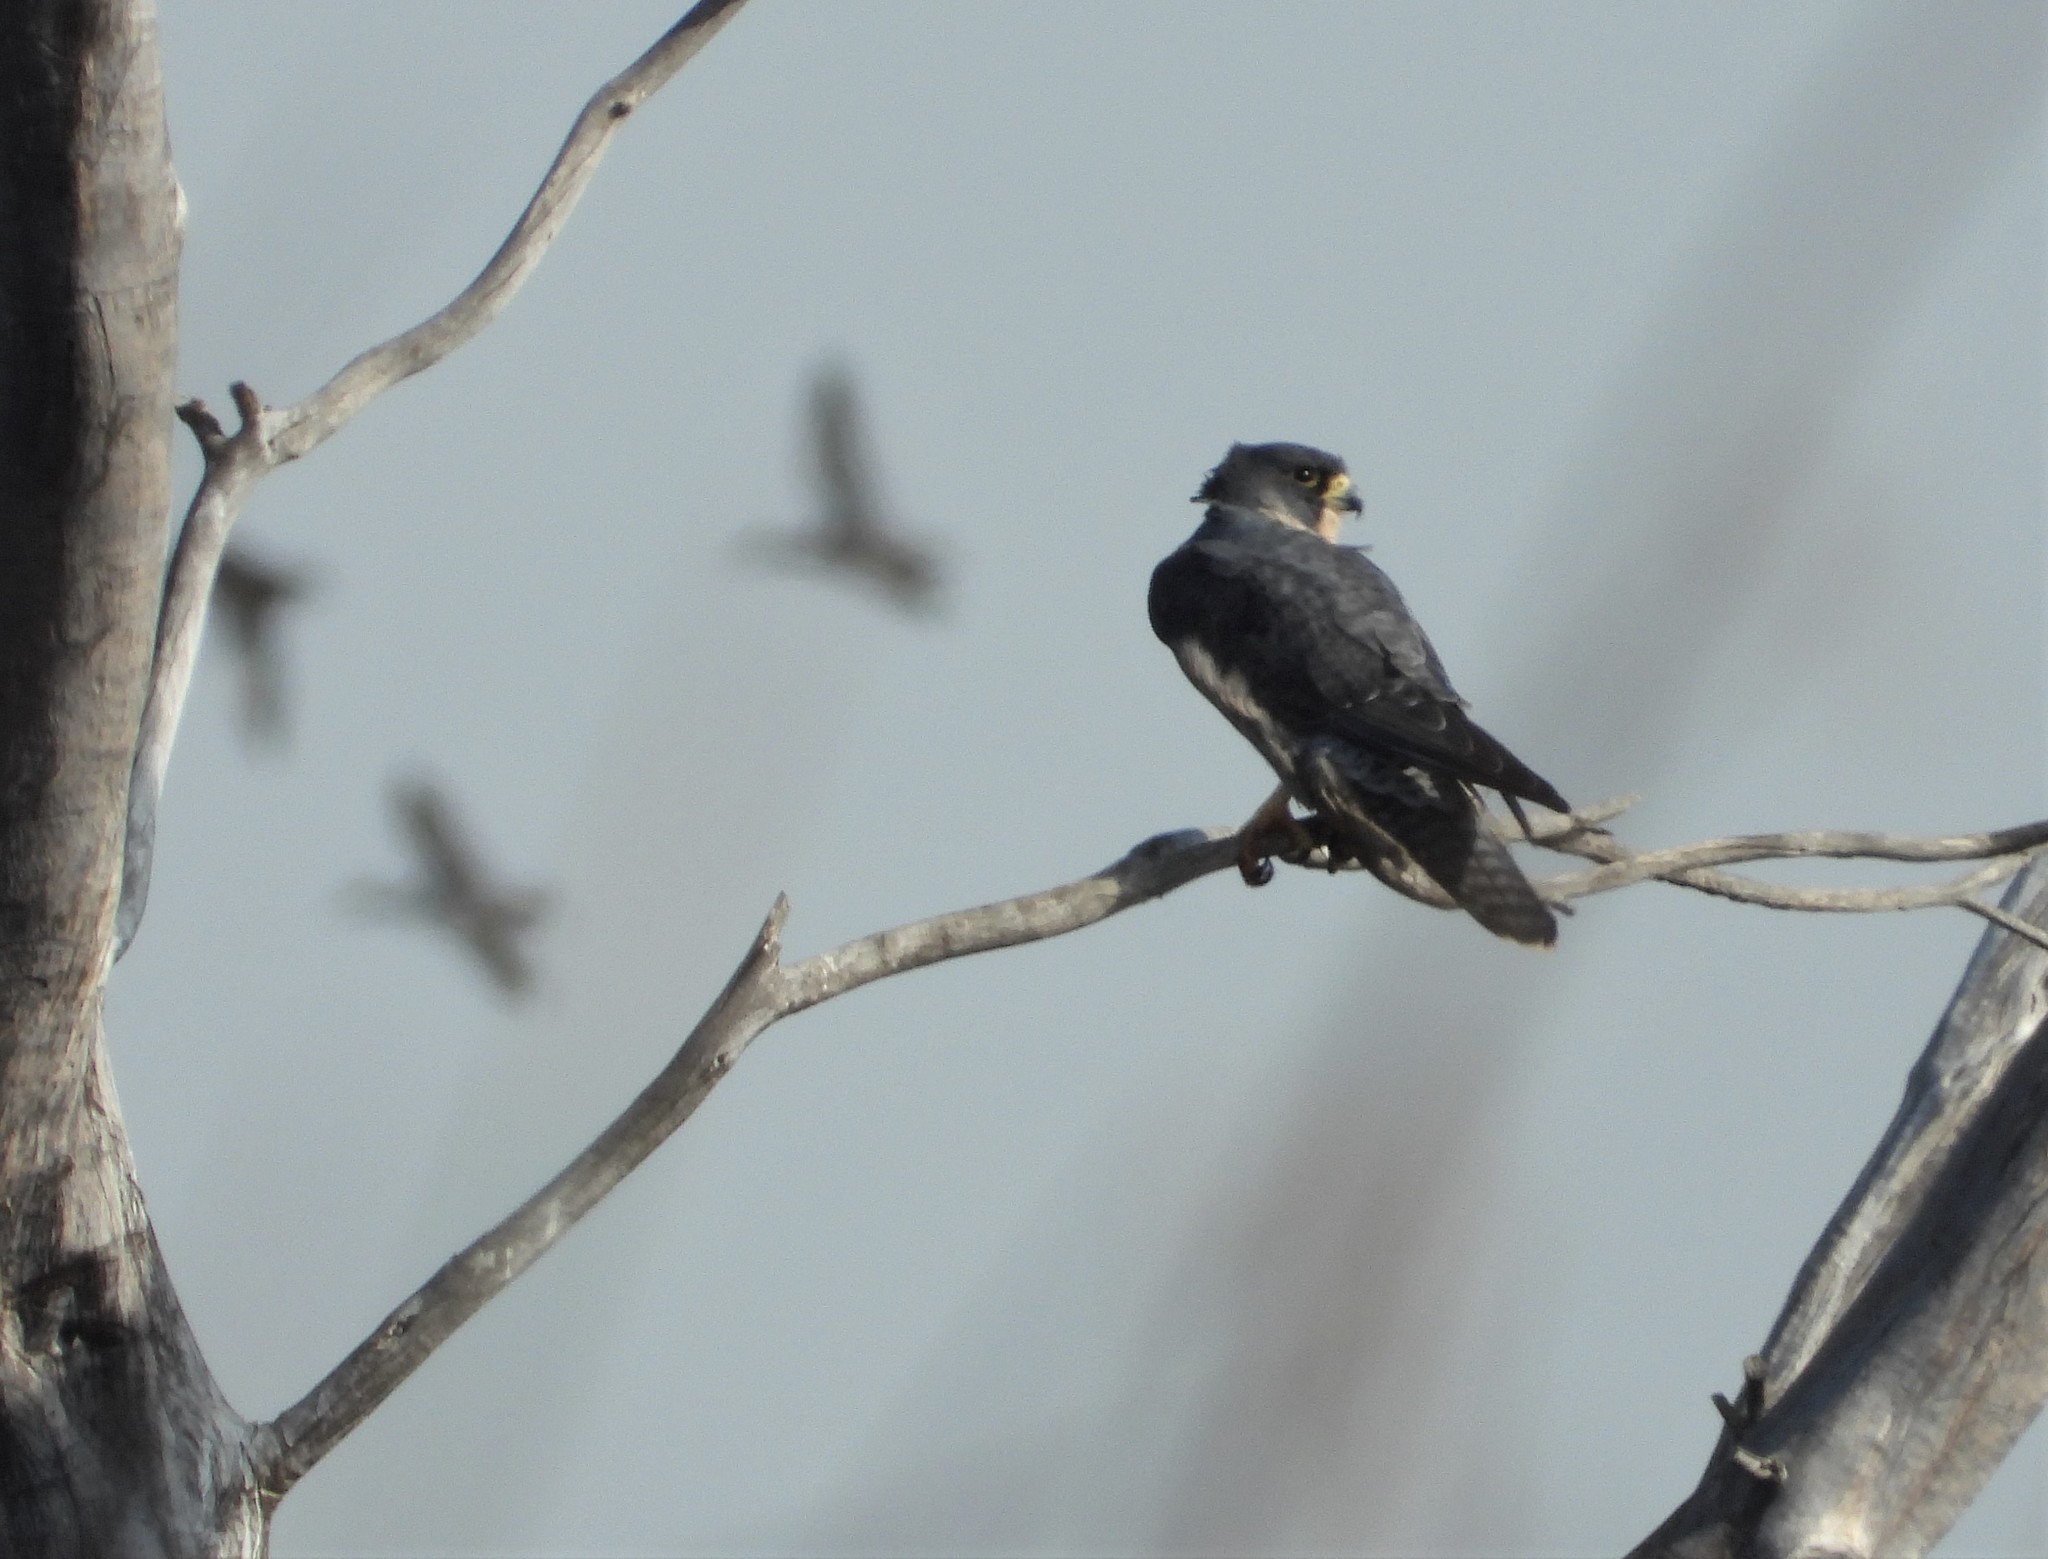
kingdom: Animalia
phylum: Chordata
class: Aves
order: Falconiformes
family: Falconidae
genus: Falco
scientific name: Falco peregrinus
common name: Peregrine falcon
